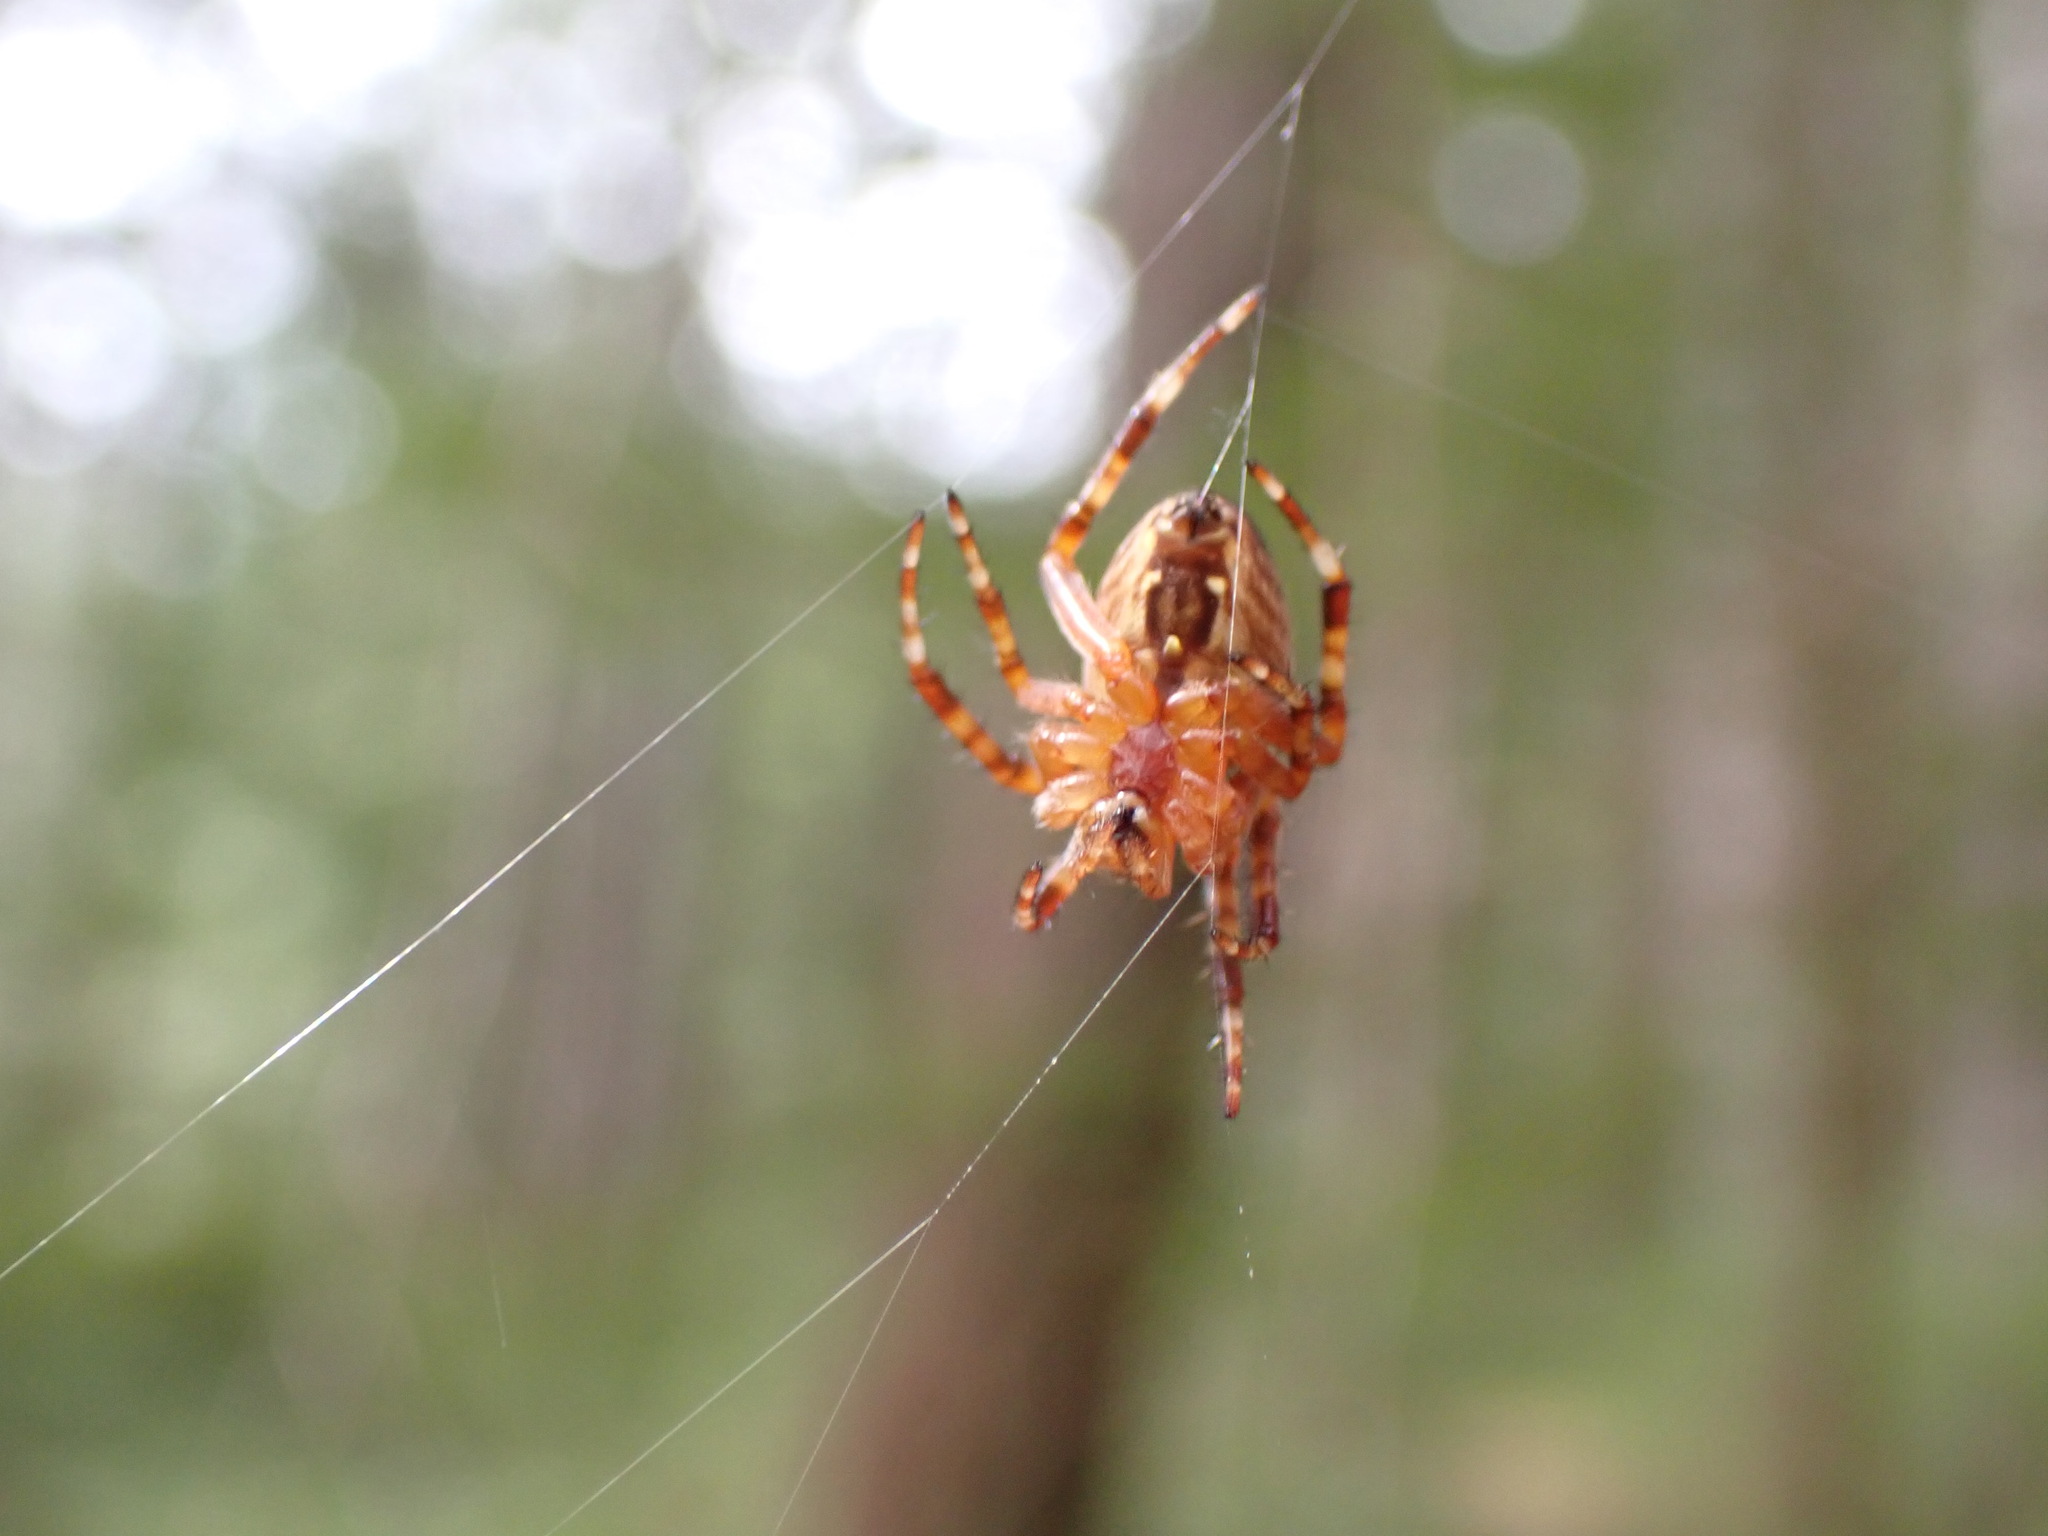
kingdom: Animalia
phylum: Arthropoda
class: Arachnida
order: Araneae
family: Araneidae
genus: Araneus
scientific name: Araneus diadematus
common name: Cross orbweaver
